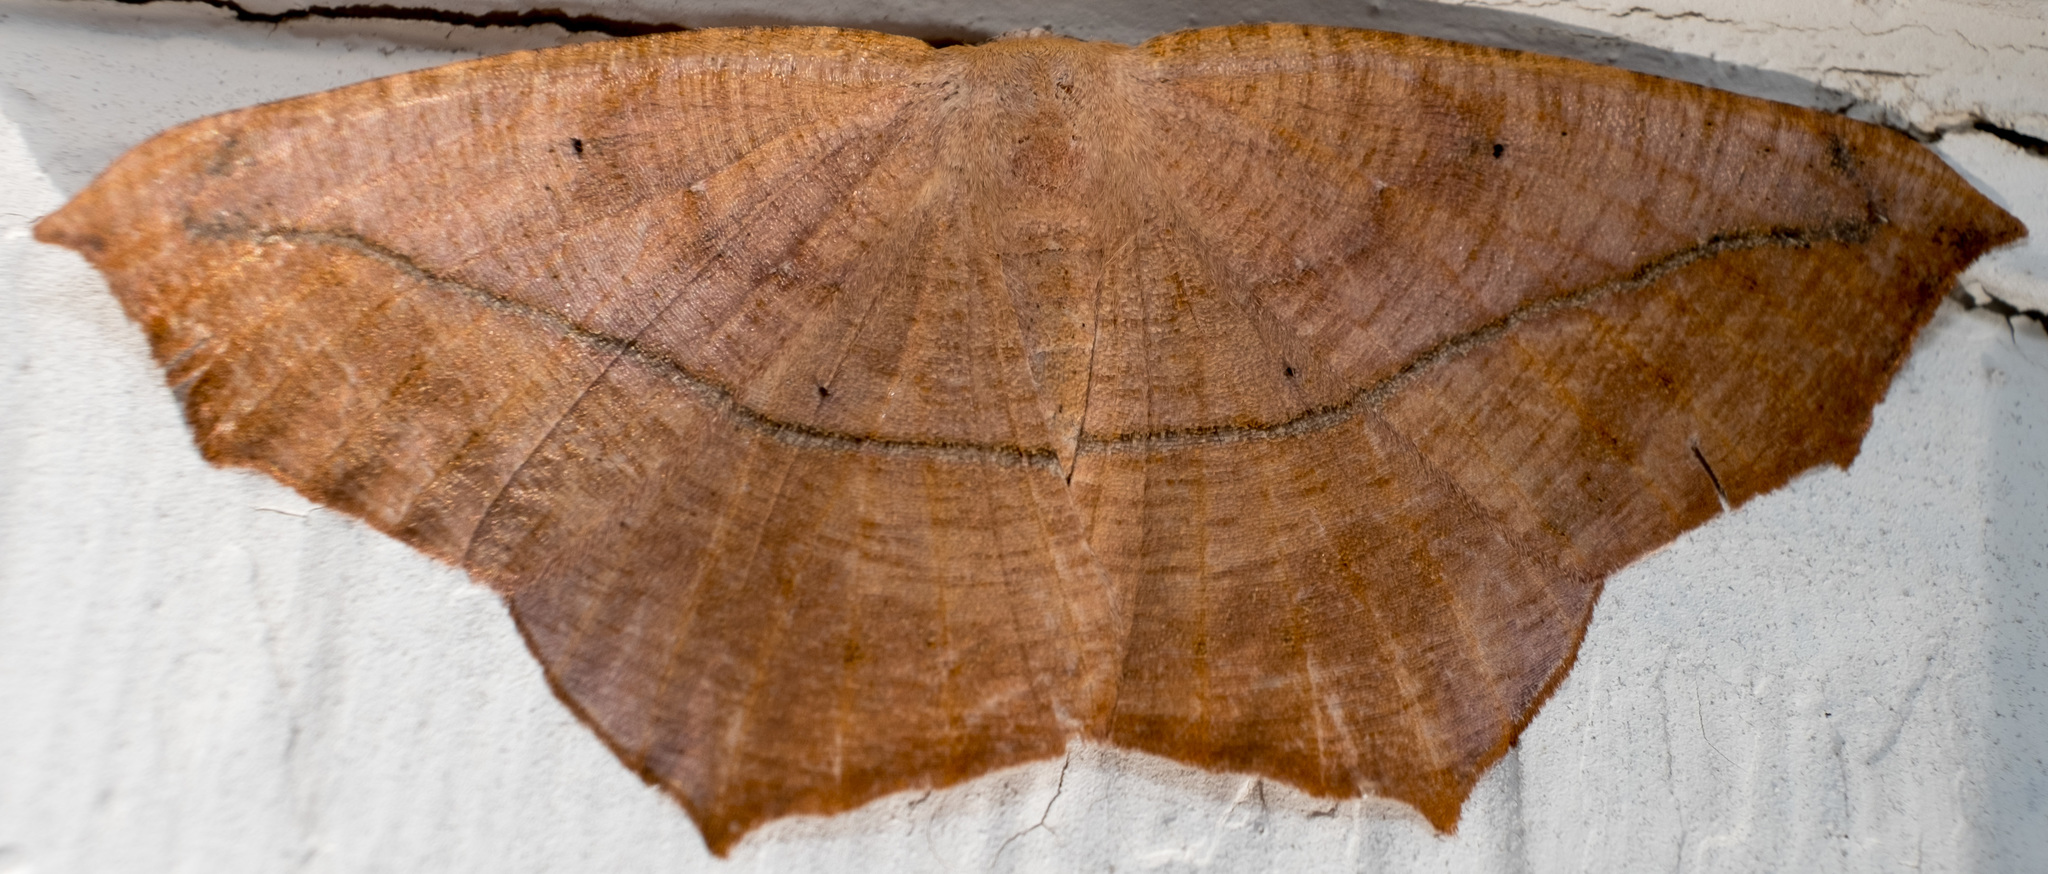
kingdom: Animalia
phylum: Arthropoda
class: Insecta
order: Lepidoptera
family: Geometridae
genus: Prochoerodes
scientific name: Prochoerodes lineola
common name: Large maple spanworm
